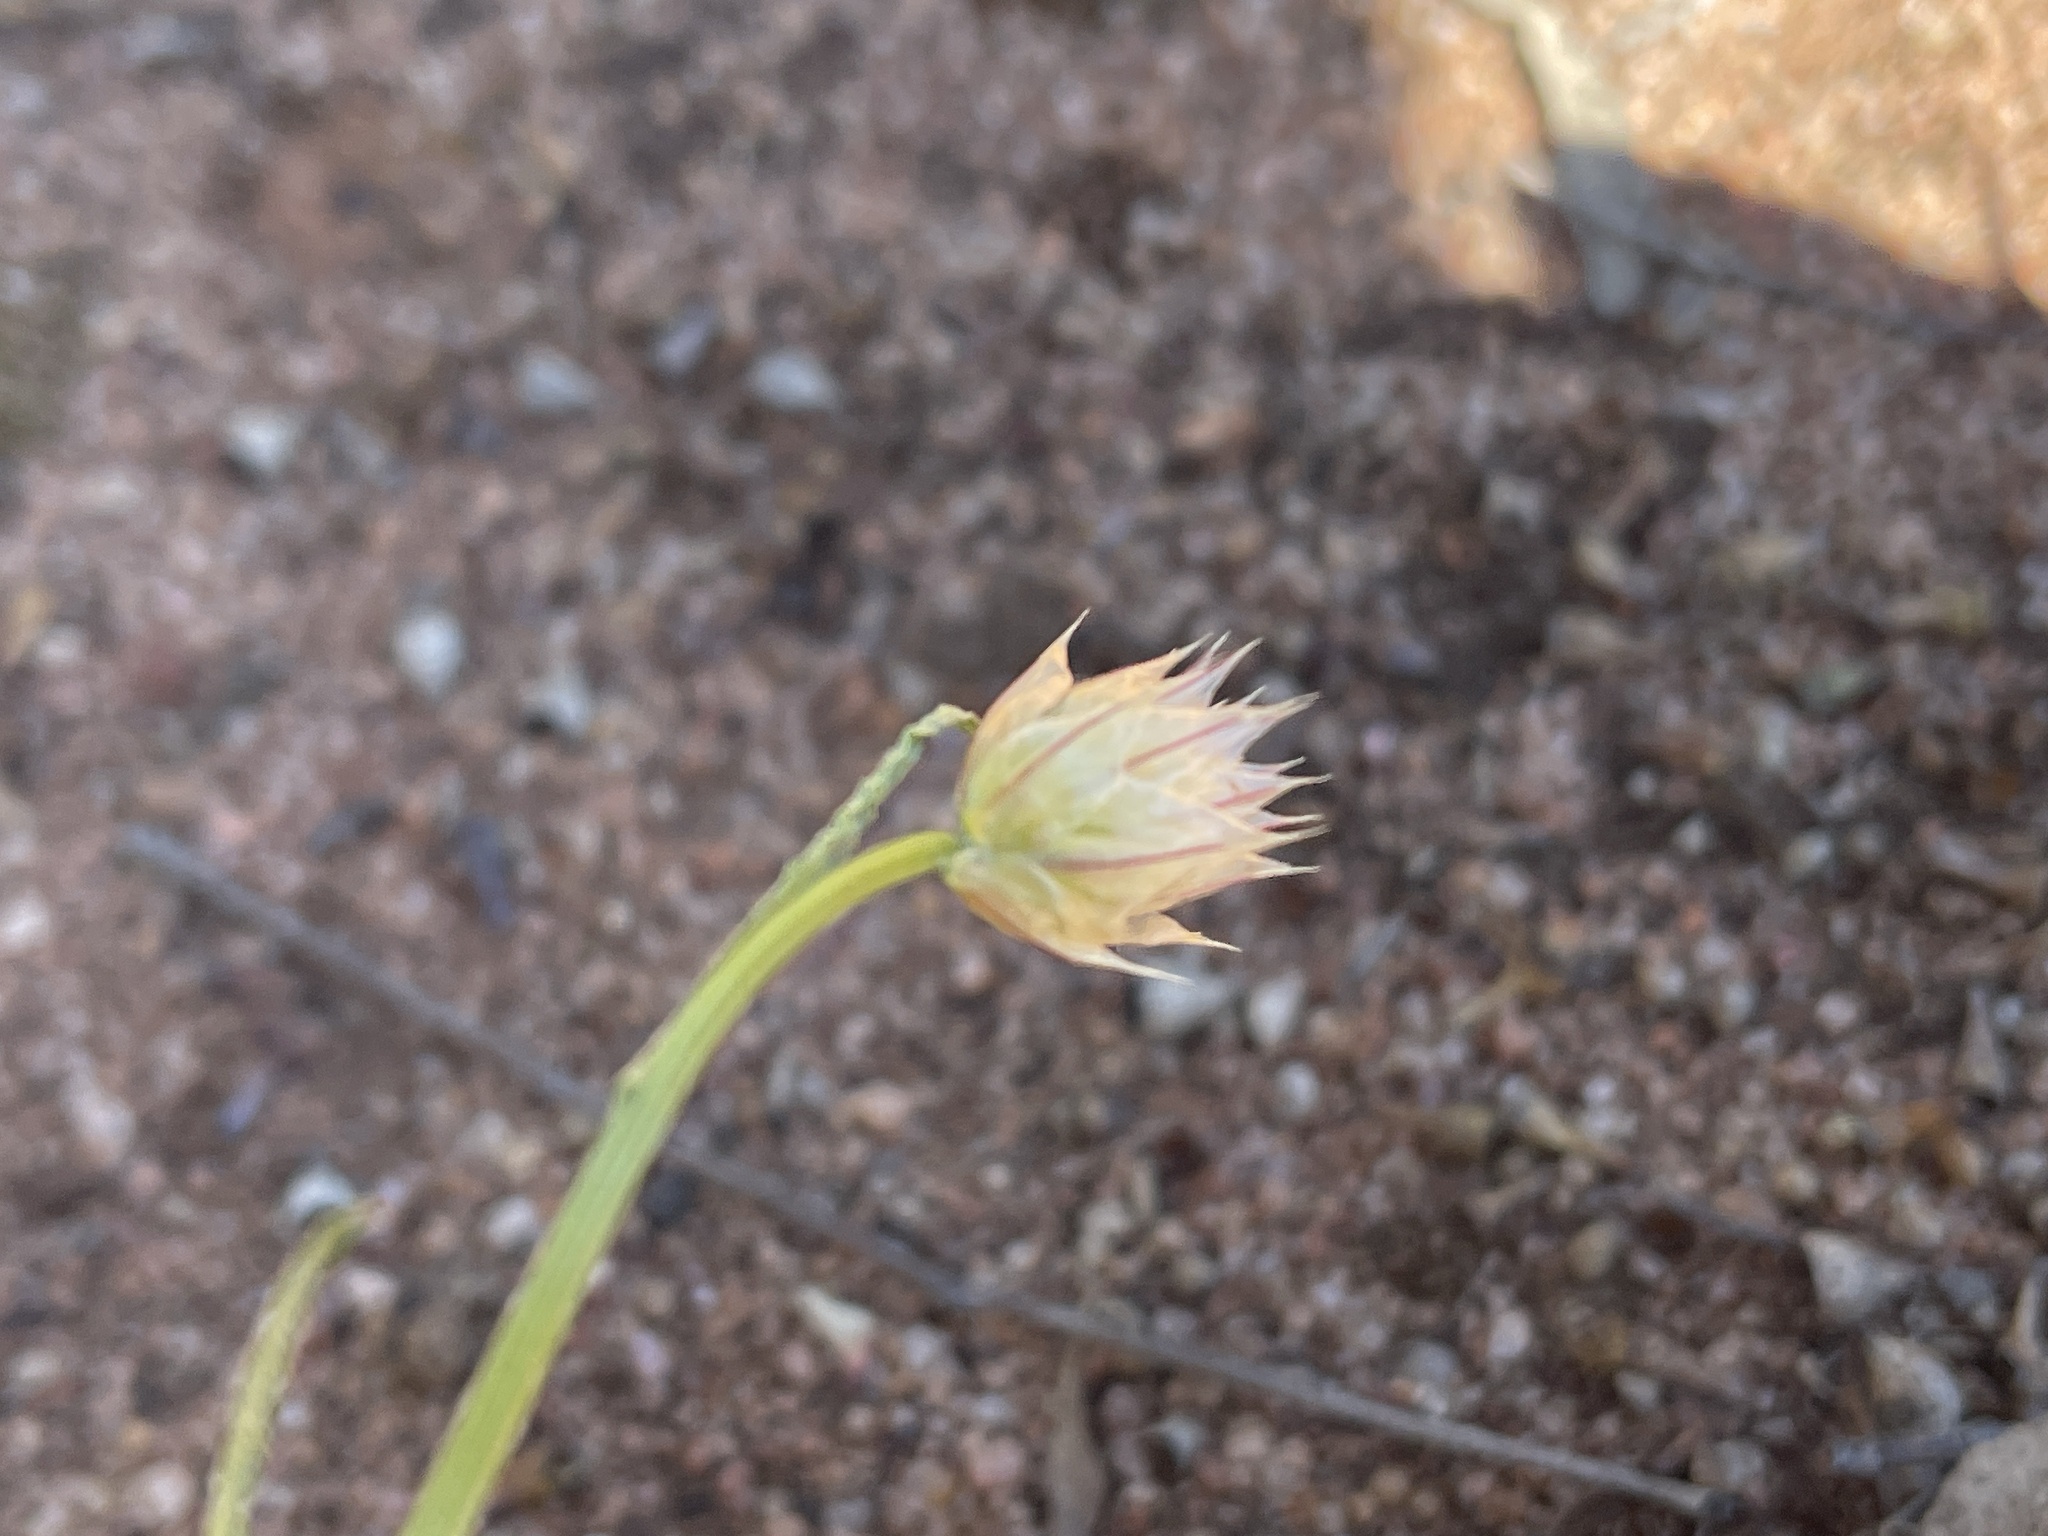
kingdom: Plantae
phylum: Tracheophyta
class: Magnoliopsida
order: Caryophyllales
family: Amaranthaceae
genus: Ptilotus
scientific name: Ptilotus macrocephalus
